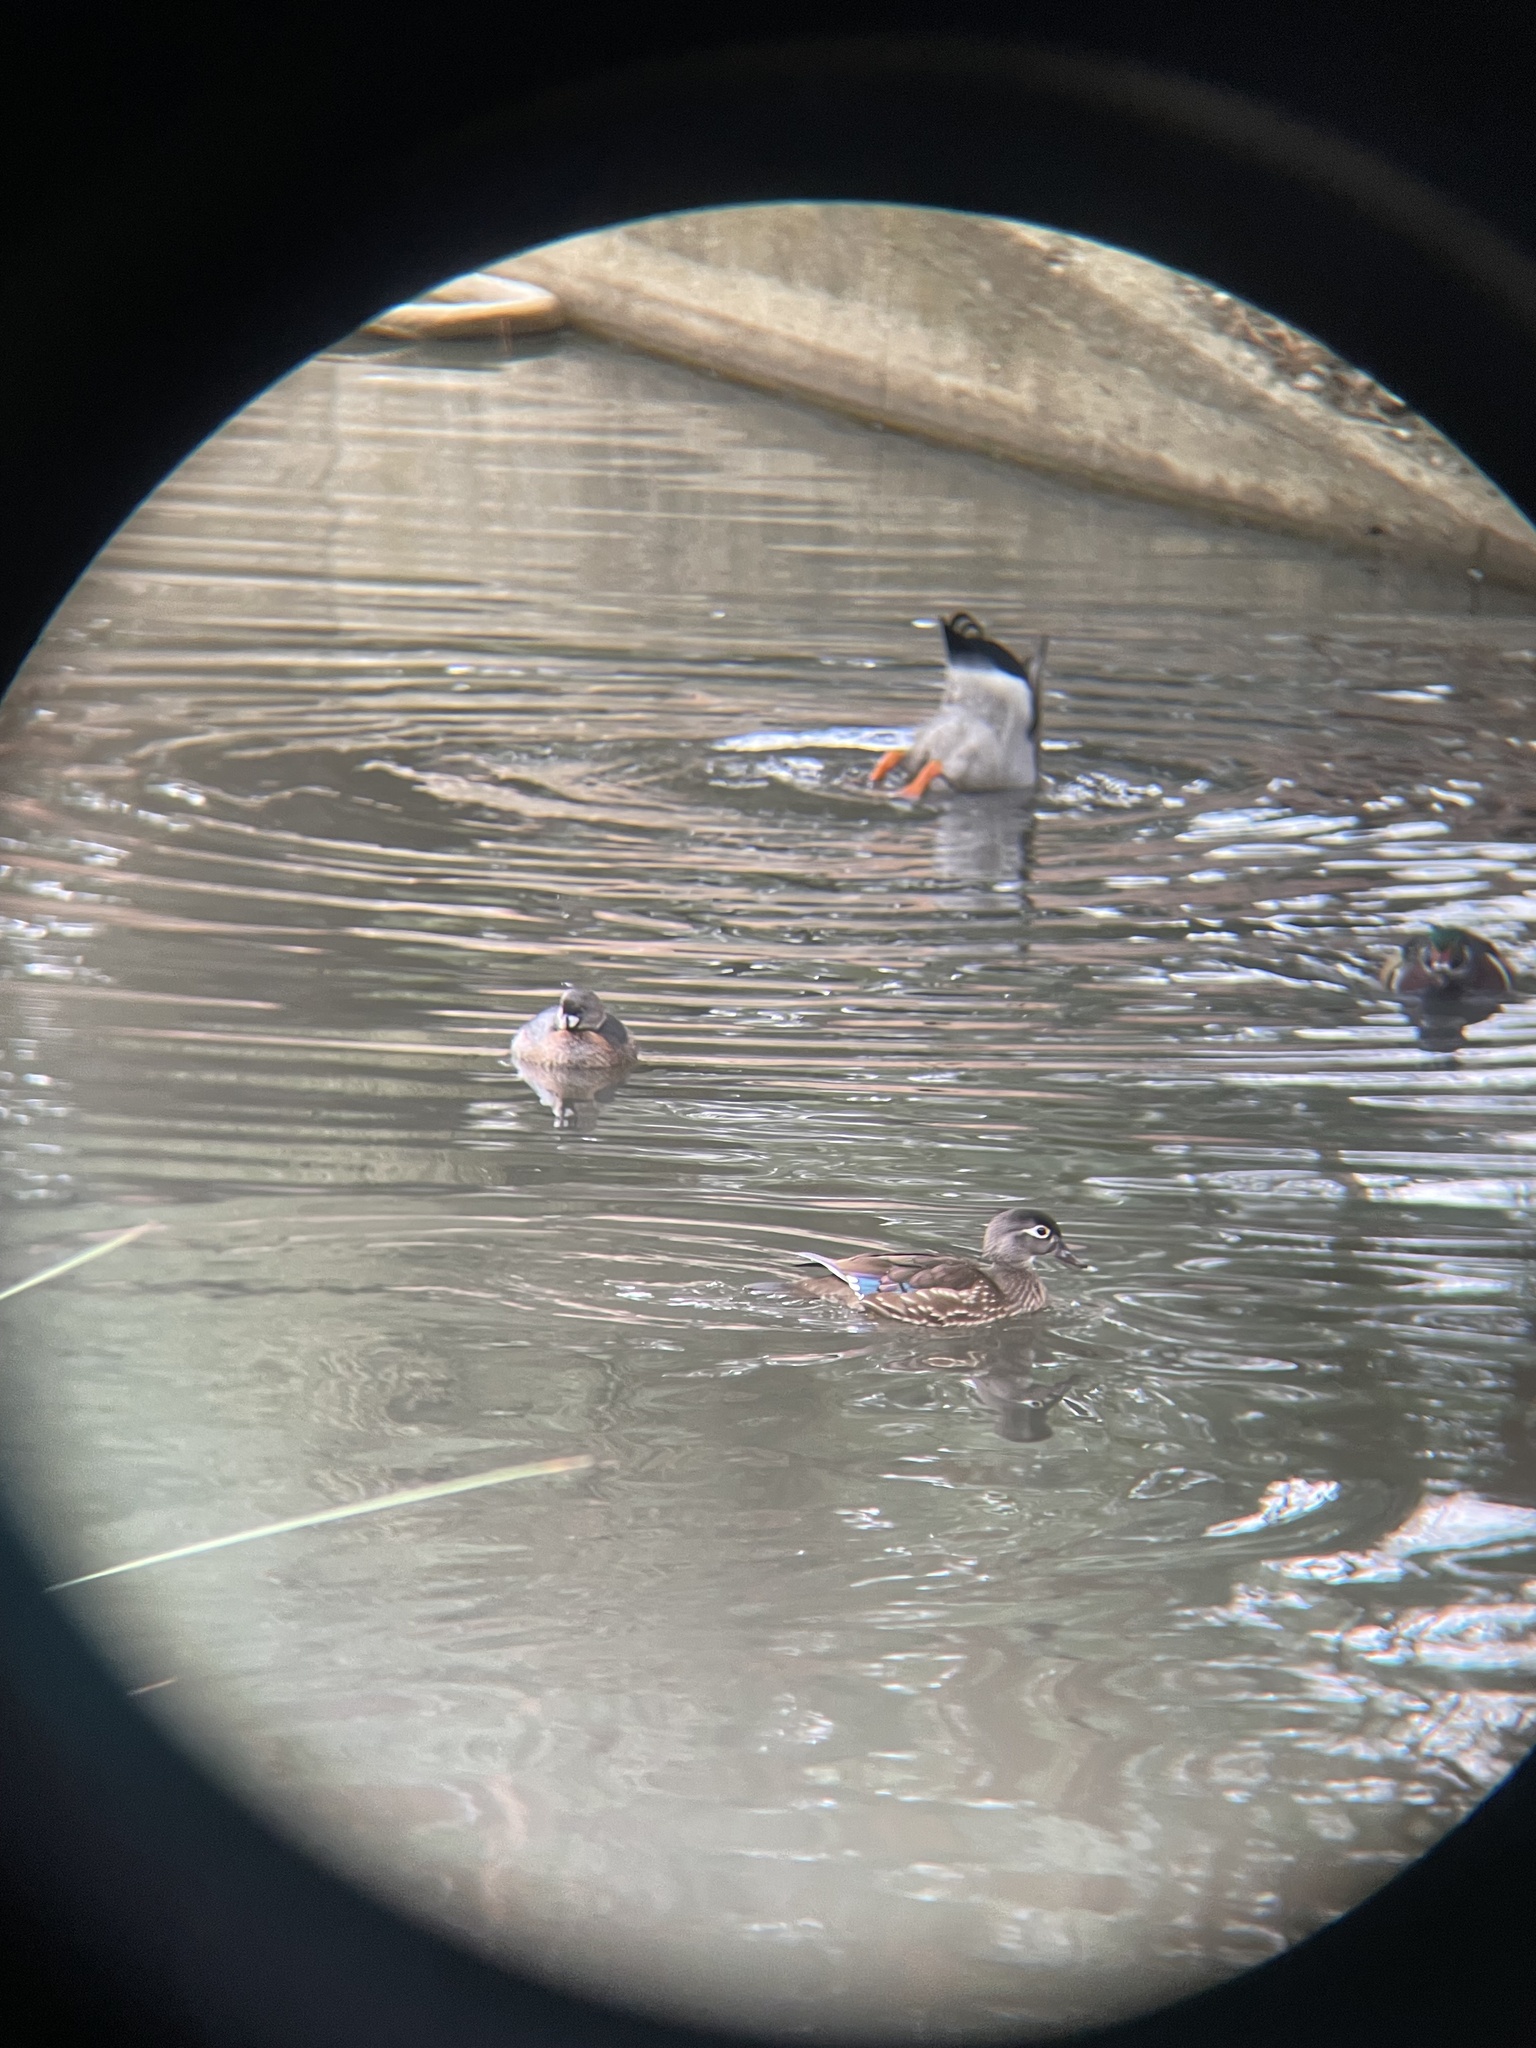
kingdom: Animalia
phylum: Chordata
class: Aves
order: Anseriformes
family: Anatidae
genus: Aix
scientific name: Aix sponsa
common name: Wood duck
